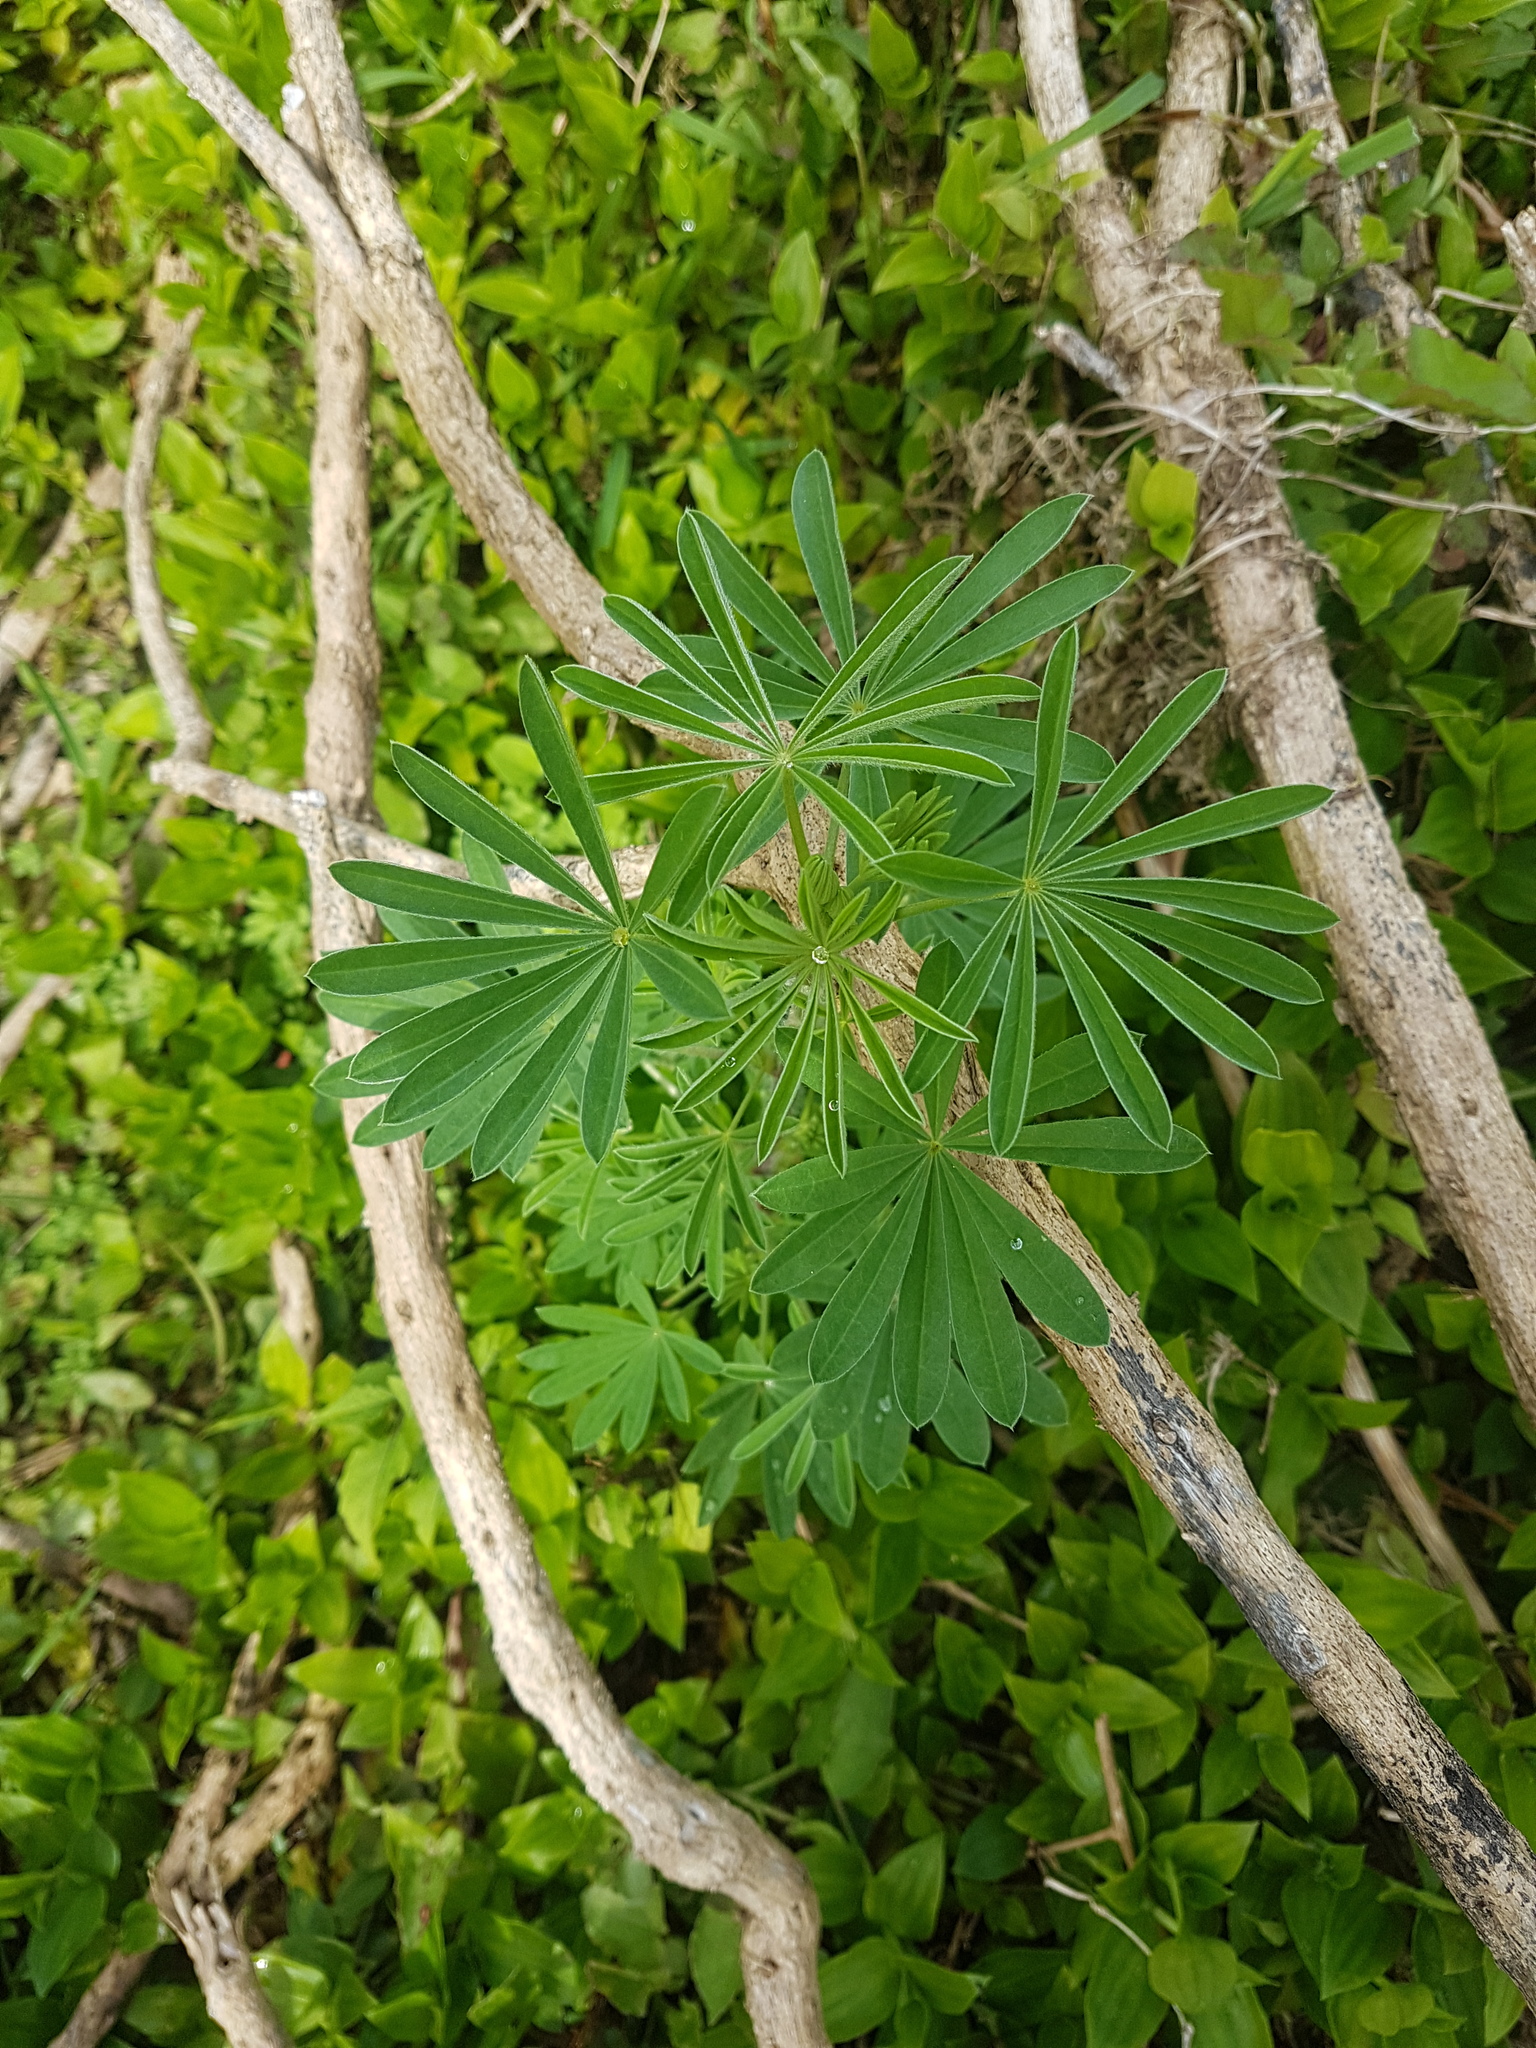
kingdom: Plantae
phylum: Tracheophyta
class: Magnoliopsida
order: Fabales
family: Fabaceae
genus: Lupinus
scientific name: Lupinus arboreus
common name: Yellow bush lupine
